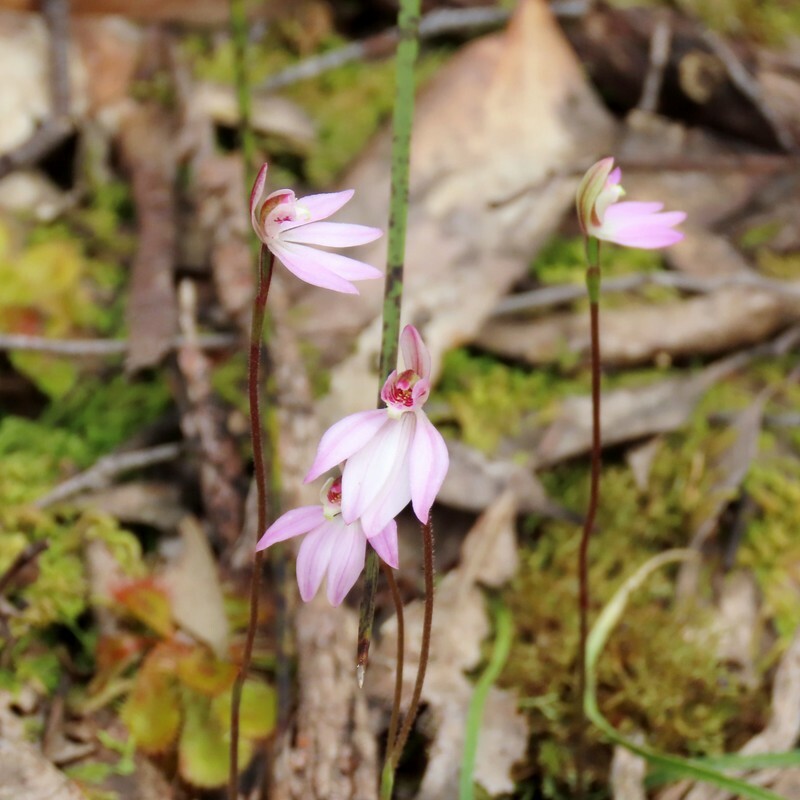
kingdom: Plantae
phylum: Tracheophyta
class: Liliopsida
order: Asparagales
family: Orchidaceae
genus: Caladenia
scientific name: Caladenia carnea
